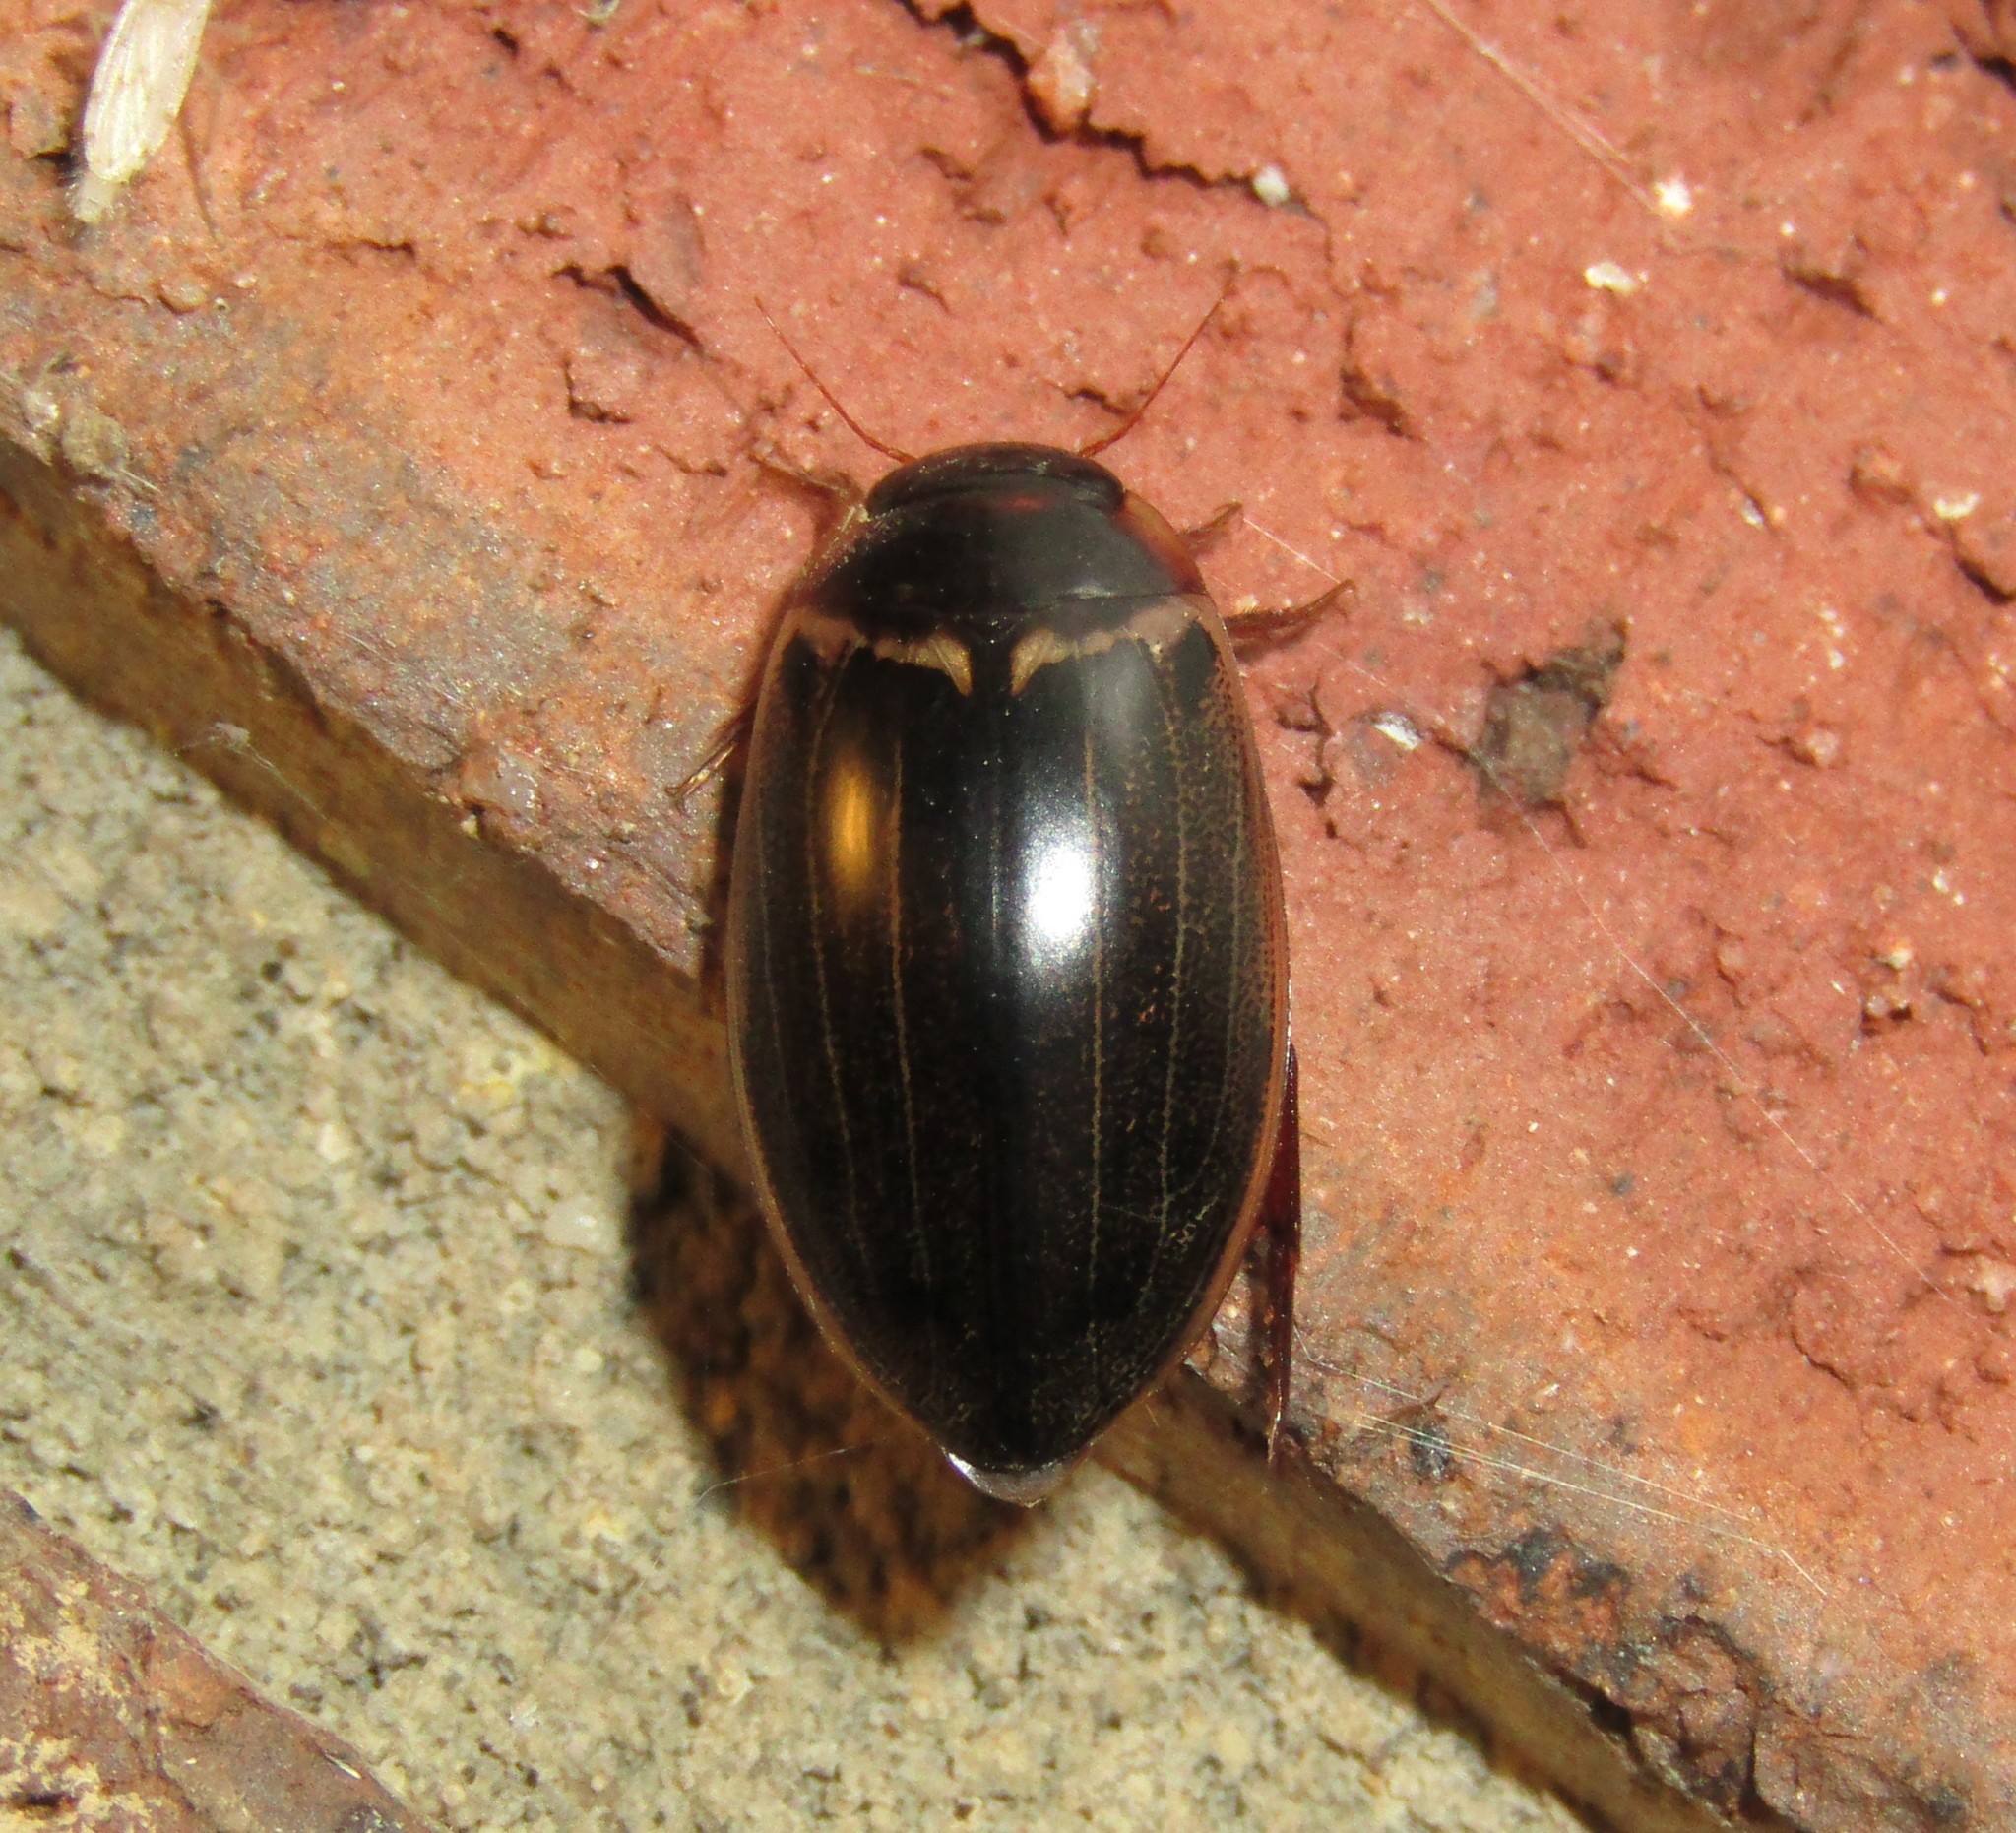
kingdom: Animalia
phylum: Arthropoda
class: Insecta
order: Coleoptera
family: Dytiscidae
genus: Meridiorhantus
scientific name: Meridiorhantus calidus
